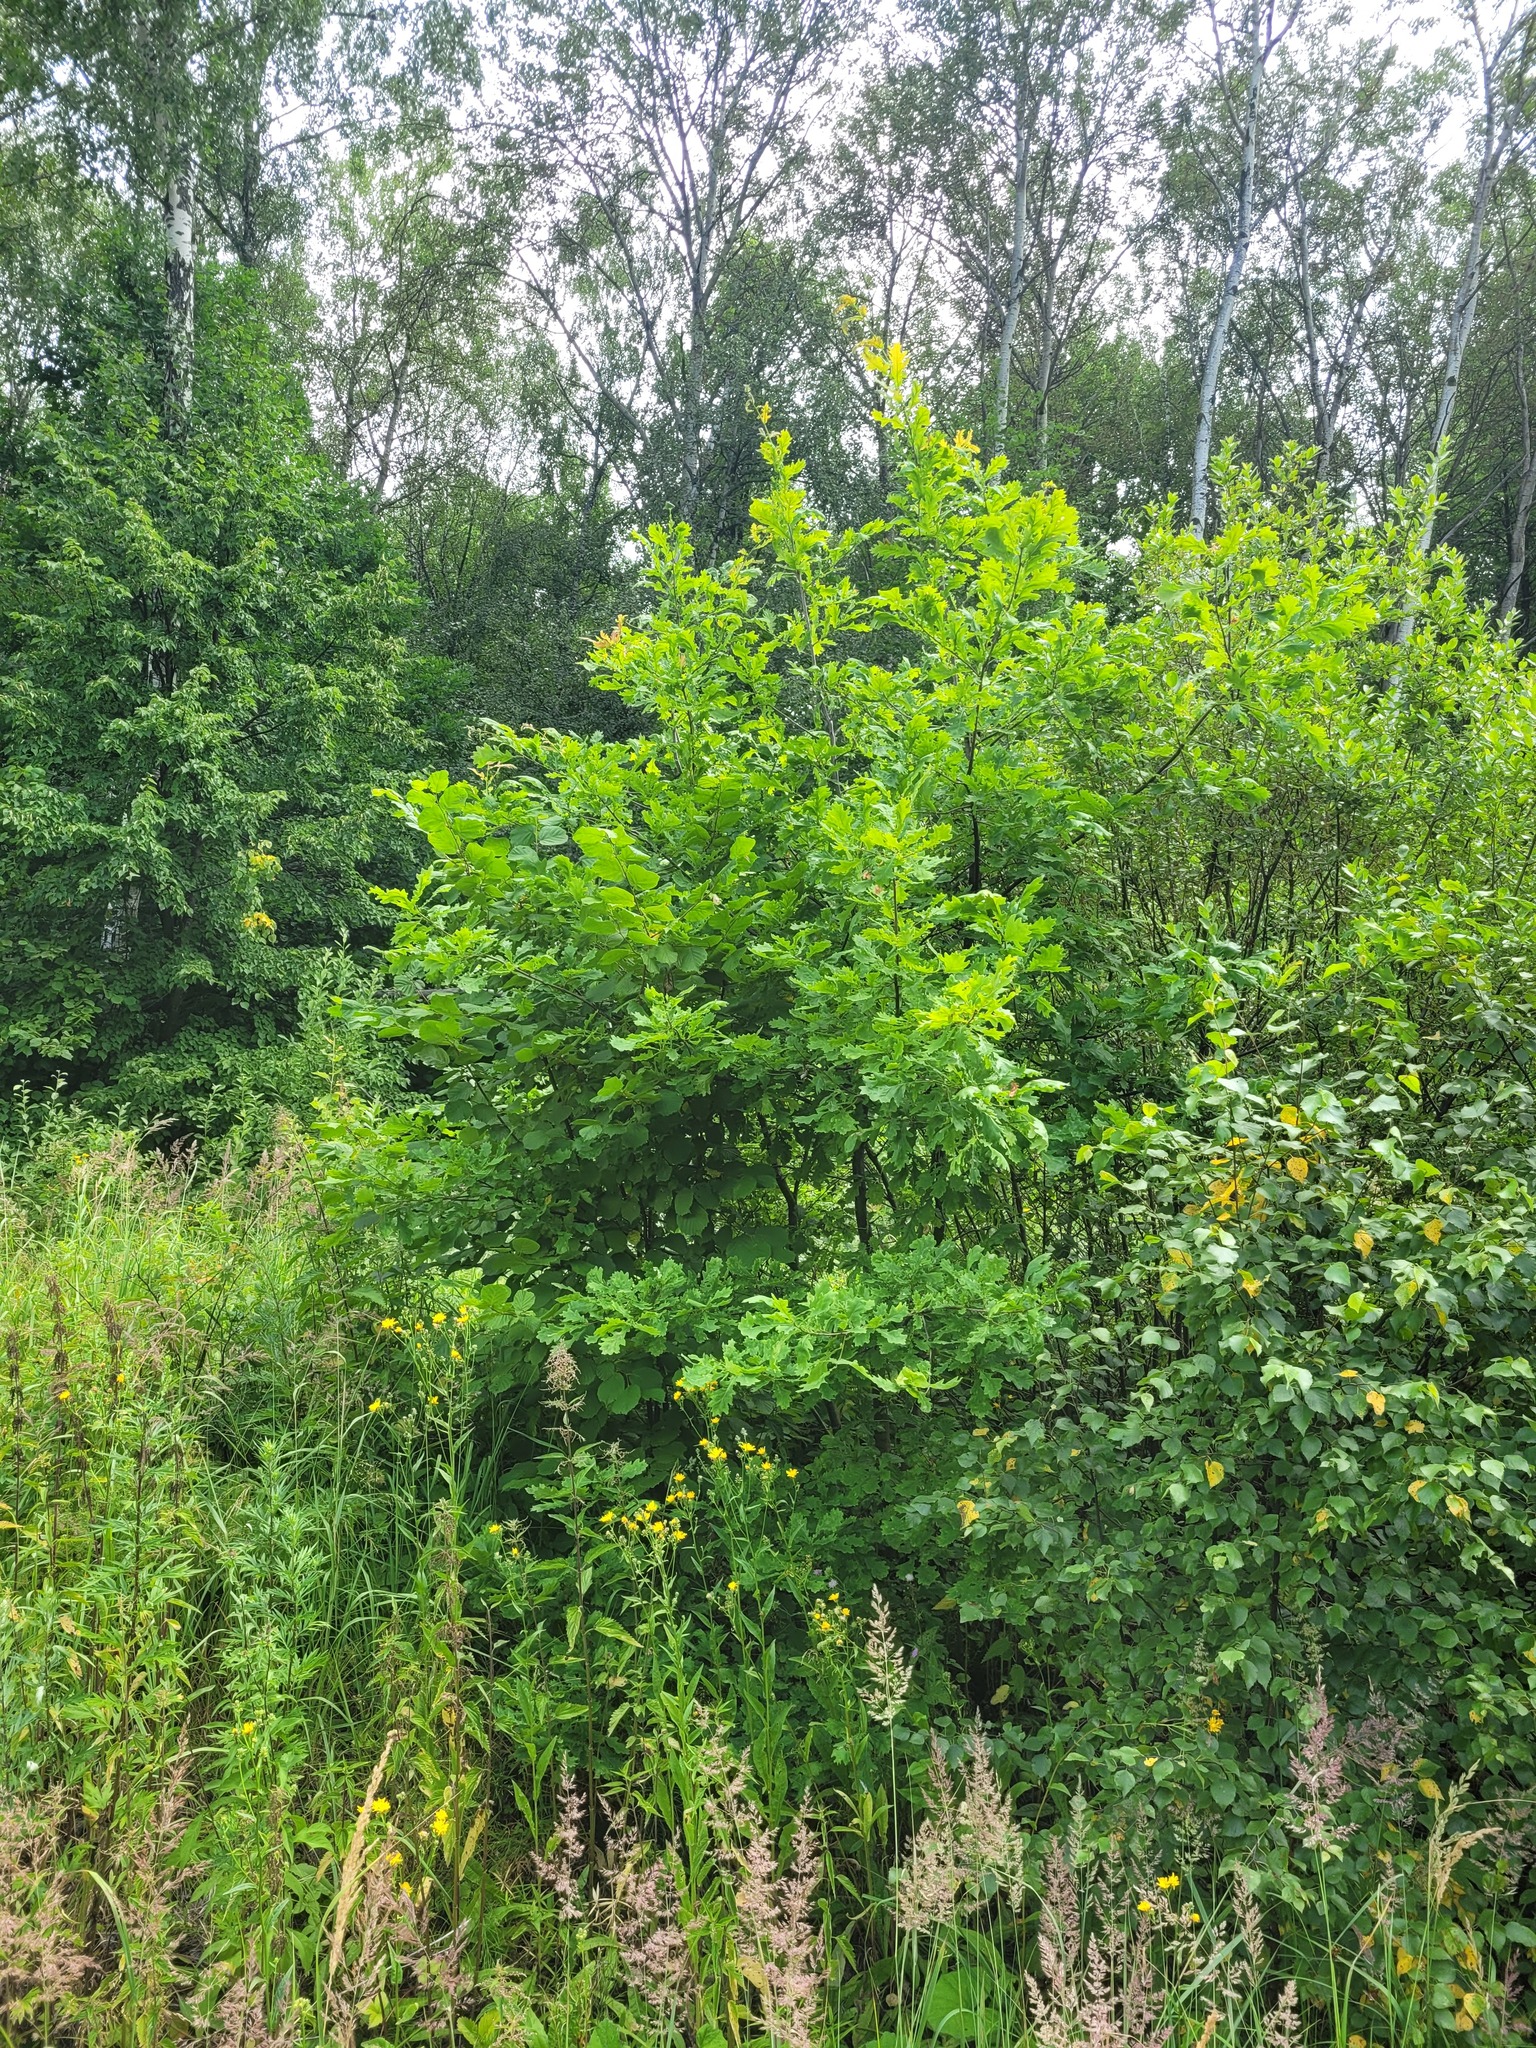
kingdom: Plantae
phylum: Tracheophyta
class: Magnoliopsida
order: Fagales
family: Fagaceae
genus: Quercus
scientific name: Quercus robur
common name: Pedunculate oak
